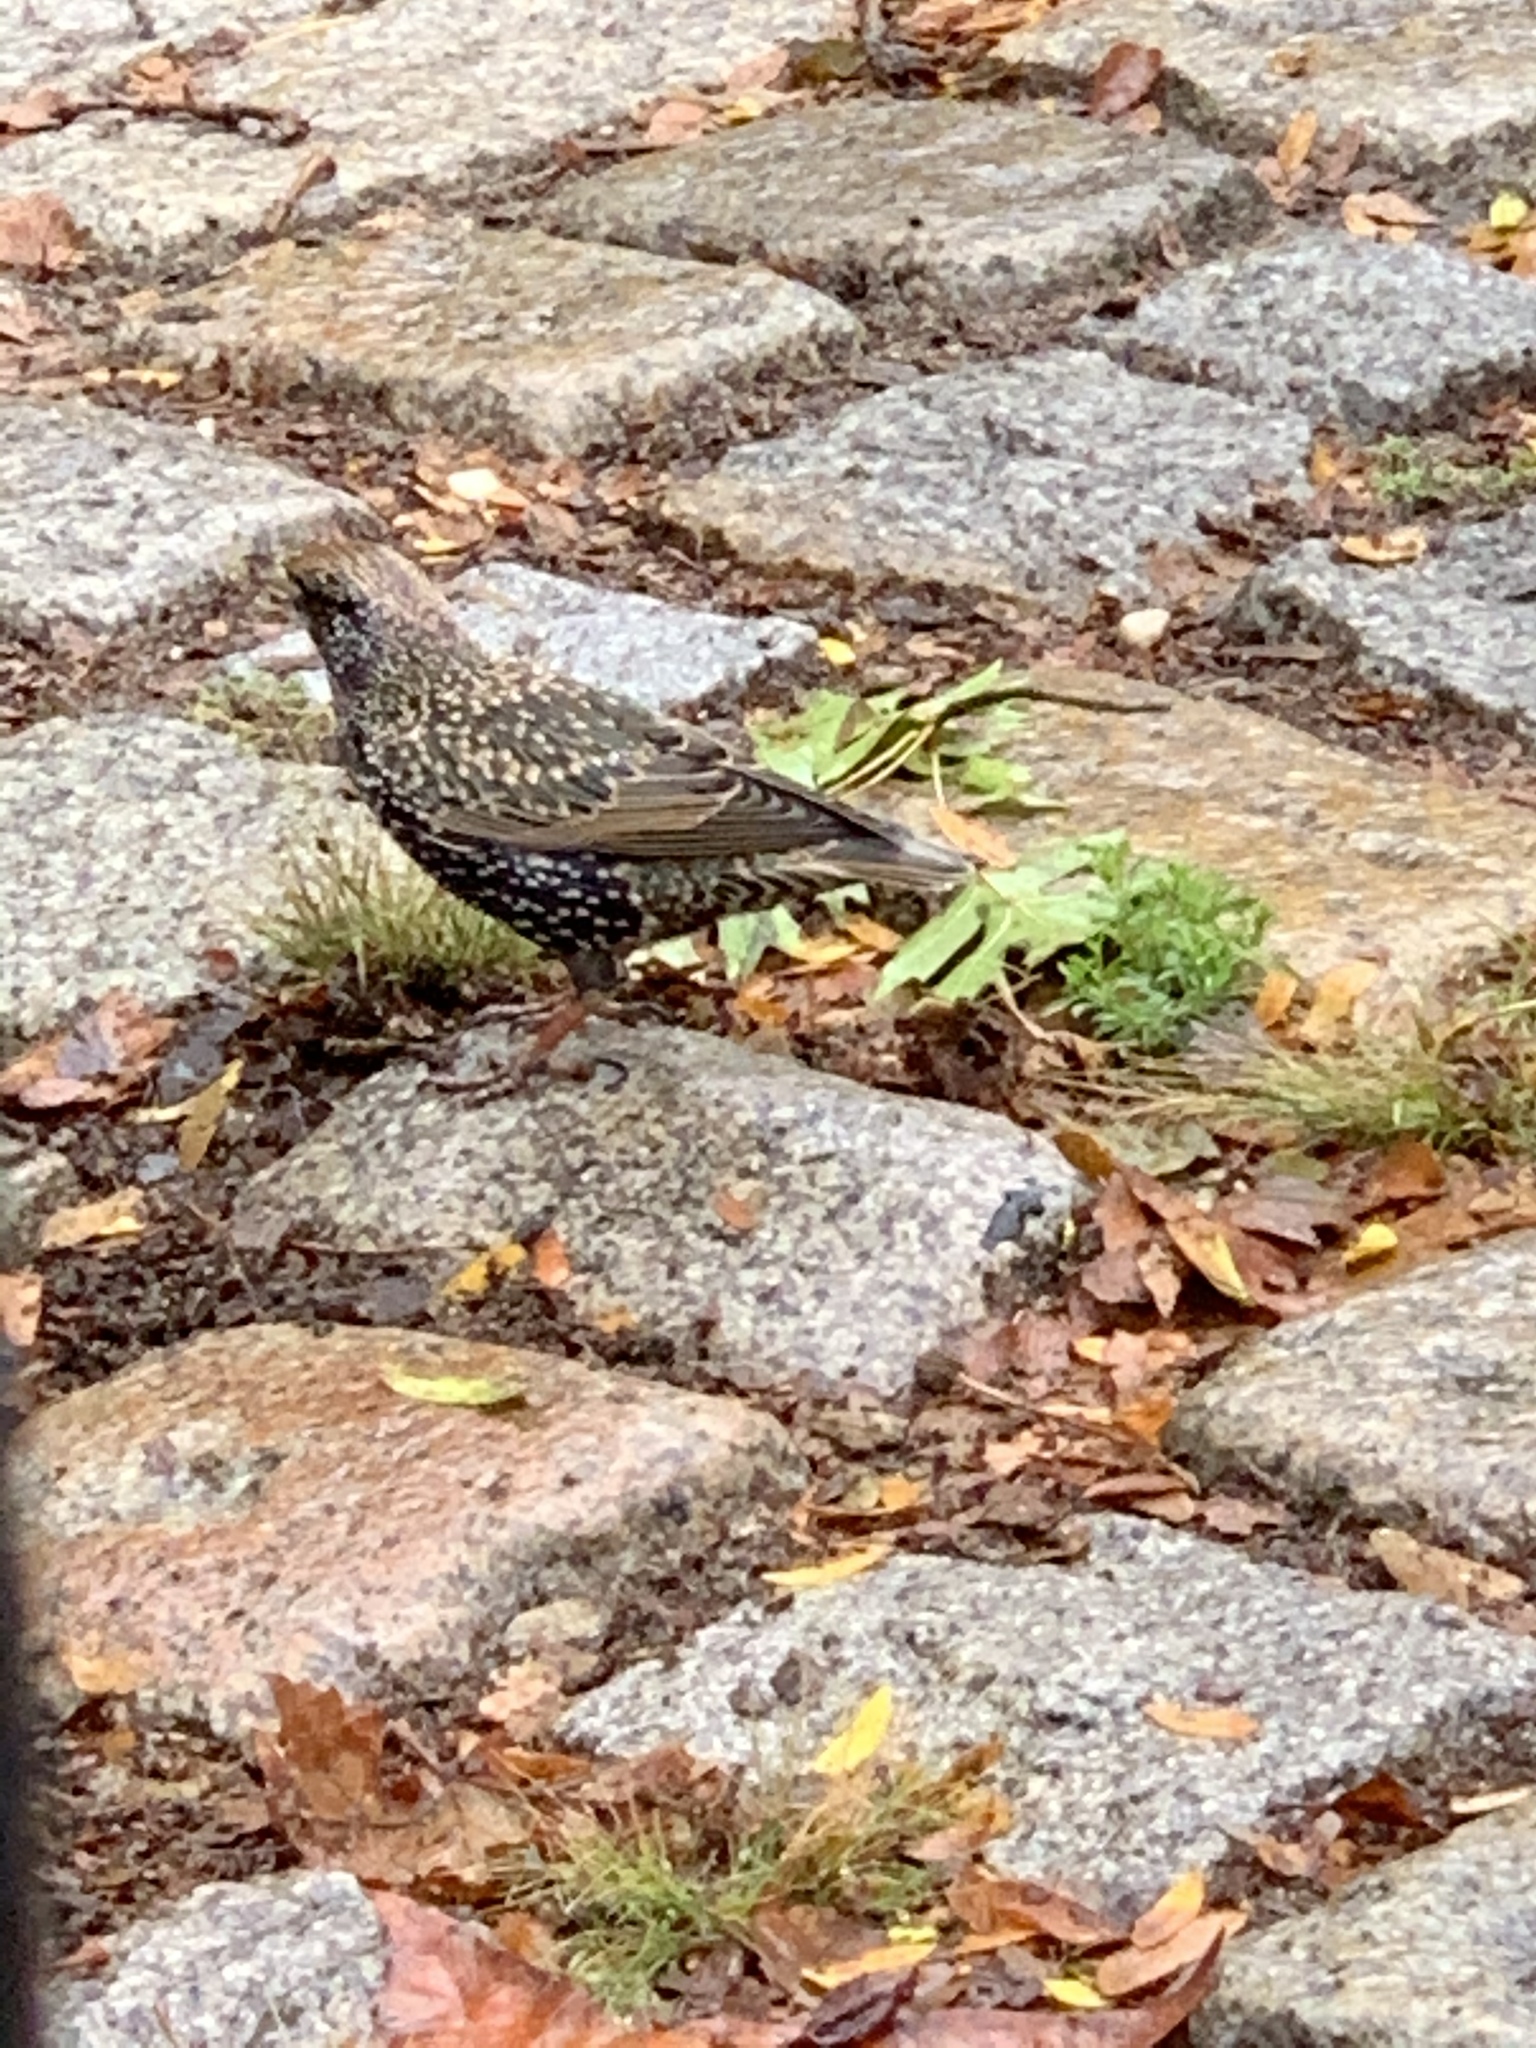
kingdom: Animalia
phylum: Chordata
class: Aves
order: Passeriformes
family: Sturnidae
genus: Sturnus
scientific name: Sturnus vulgaris
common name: Common starling
